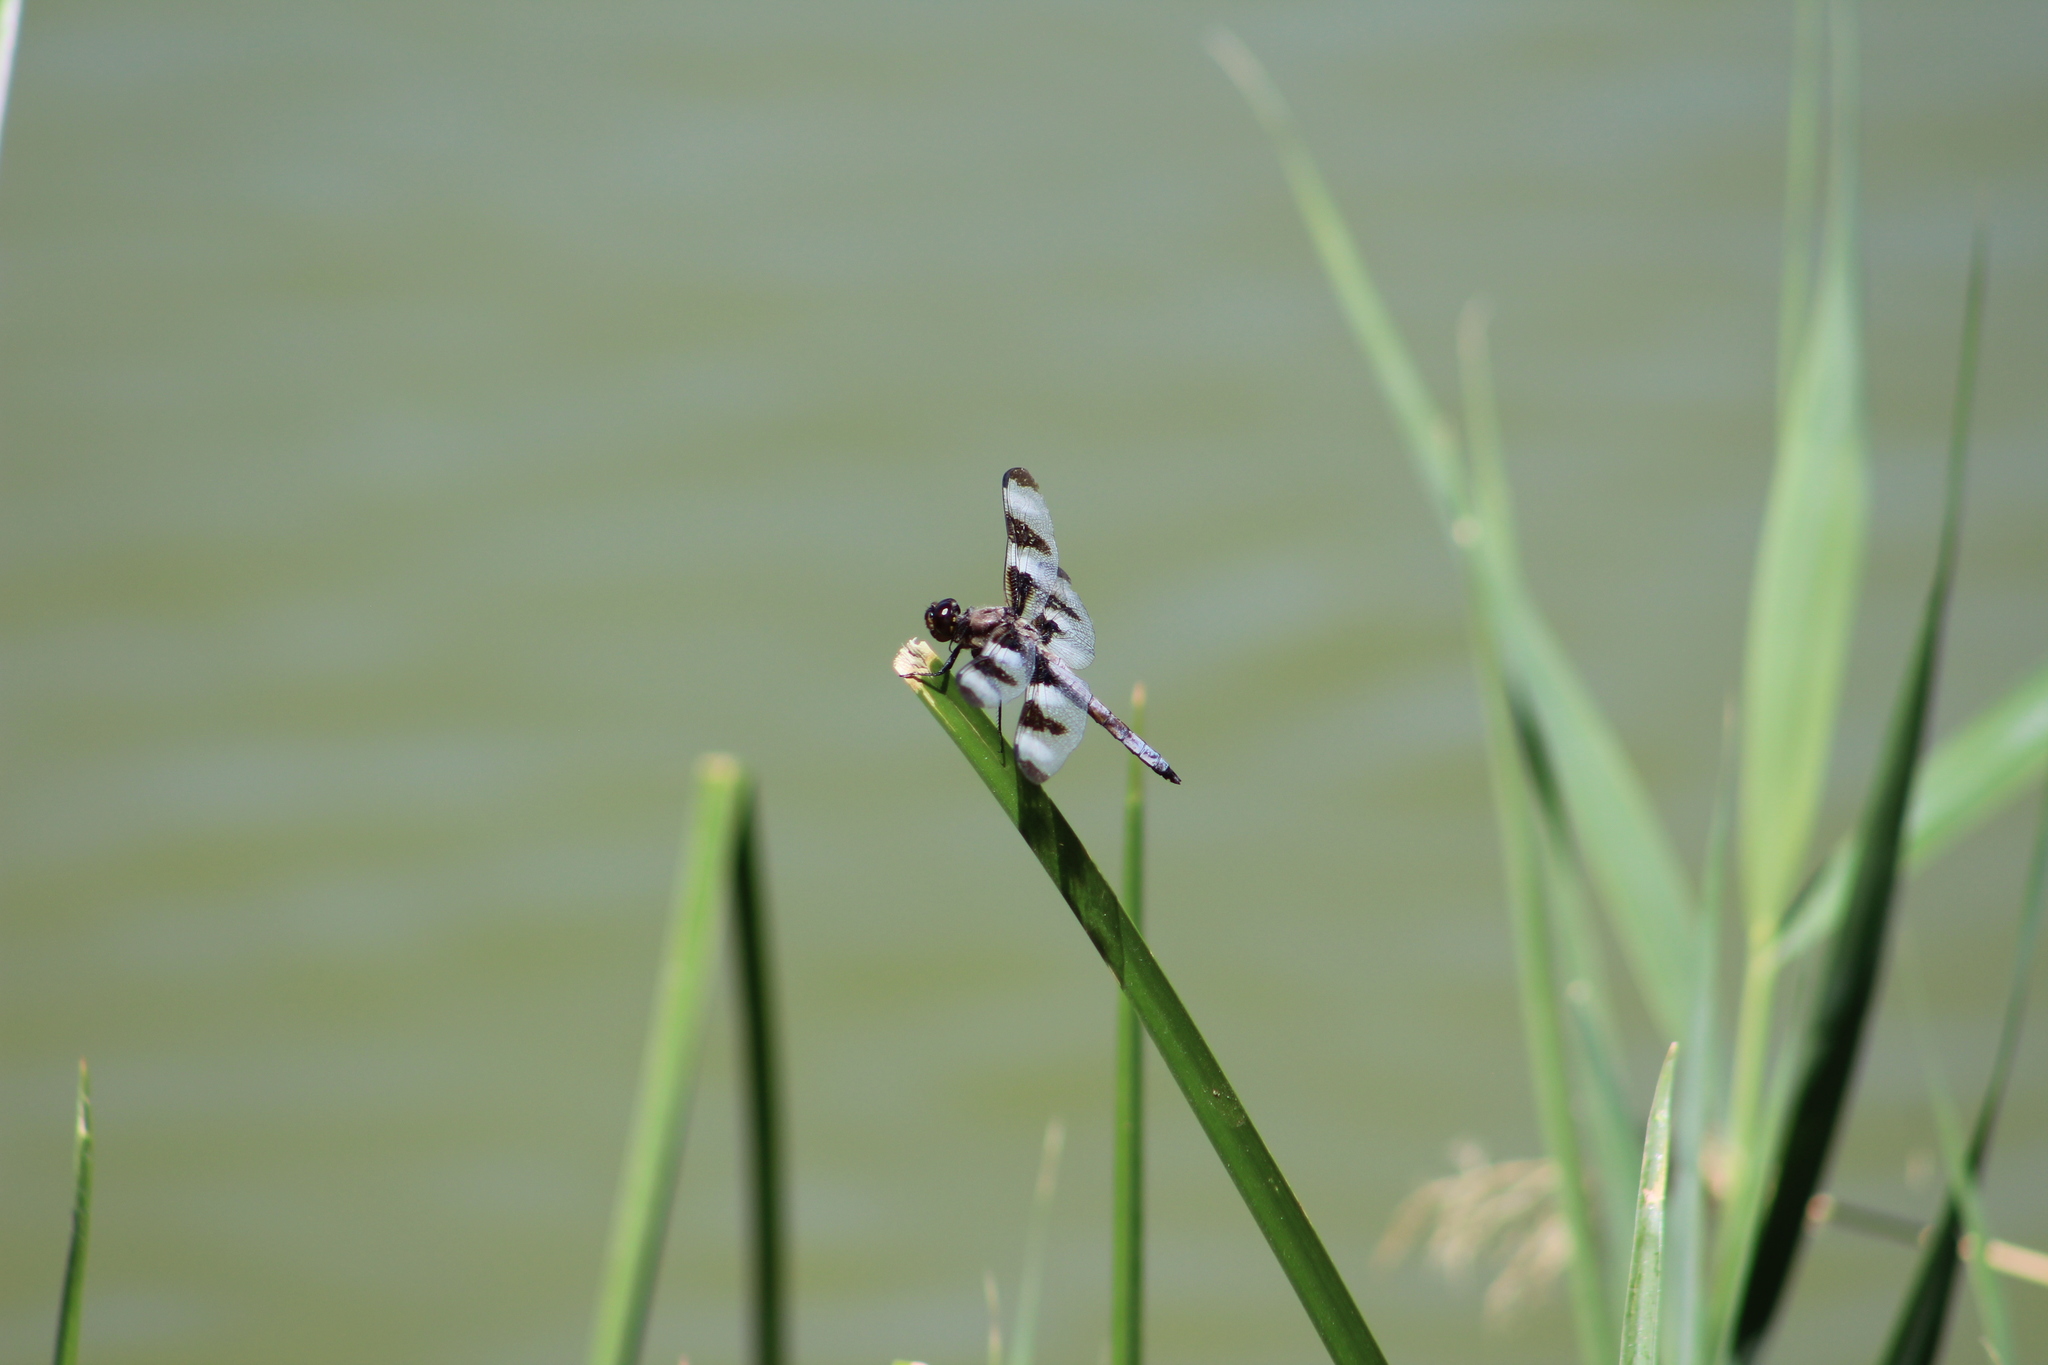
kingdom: Animalia
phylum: Arthropoda
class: Insecta
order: Odonata
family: Libellulidae
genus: Libellula
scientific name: Libellula pulchella
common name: Twelve-spotted skimmer
